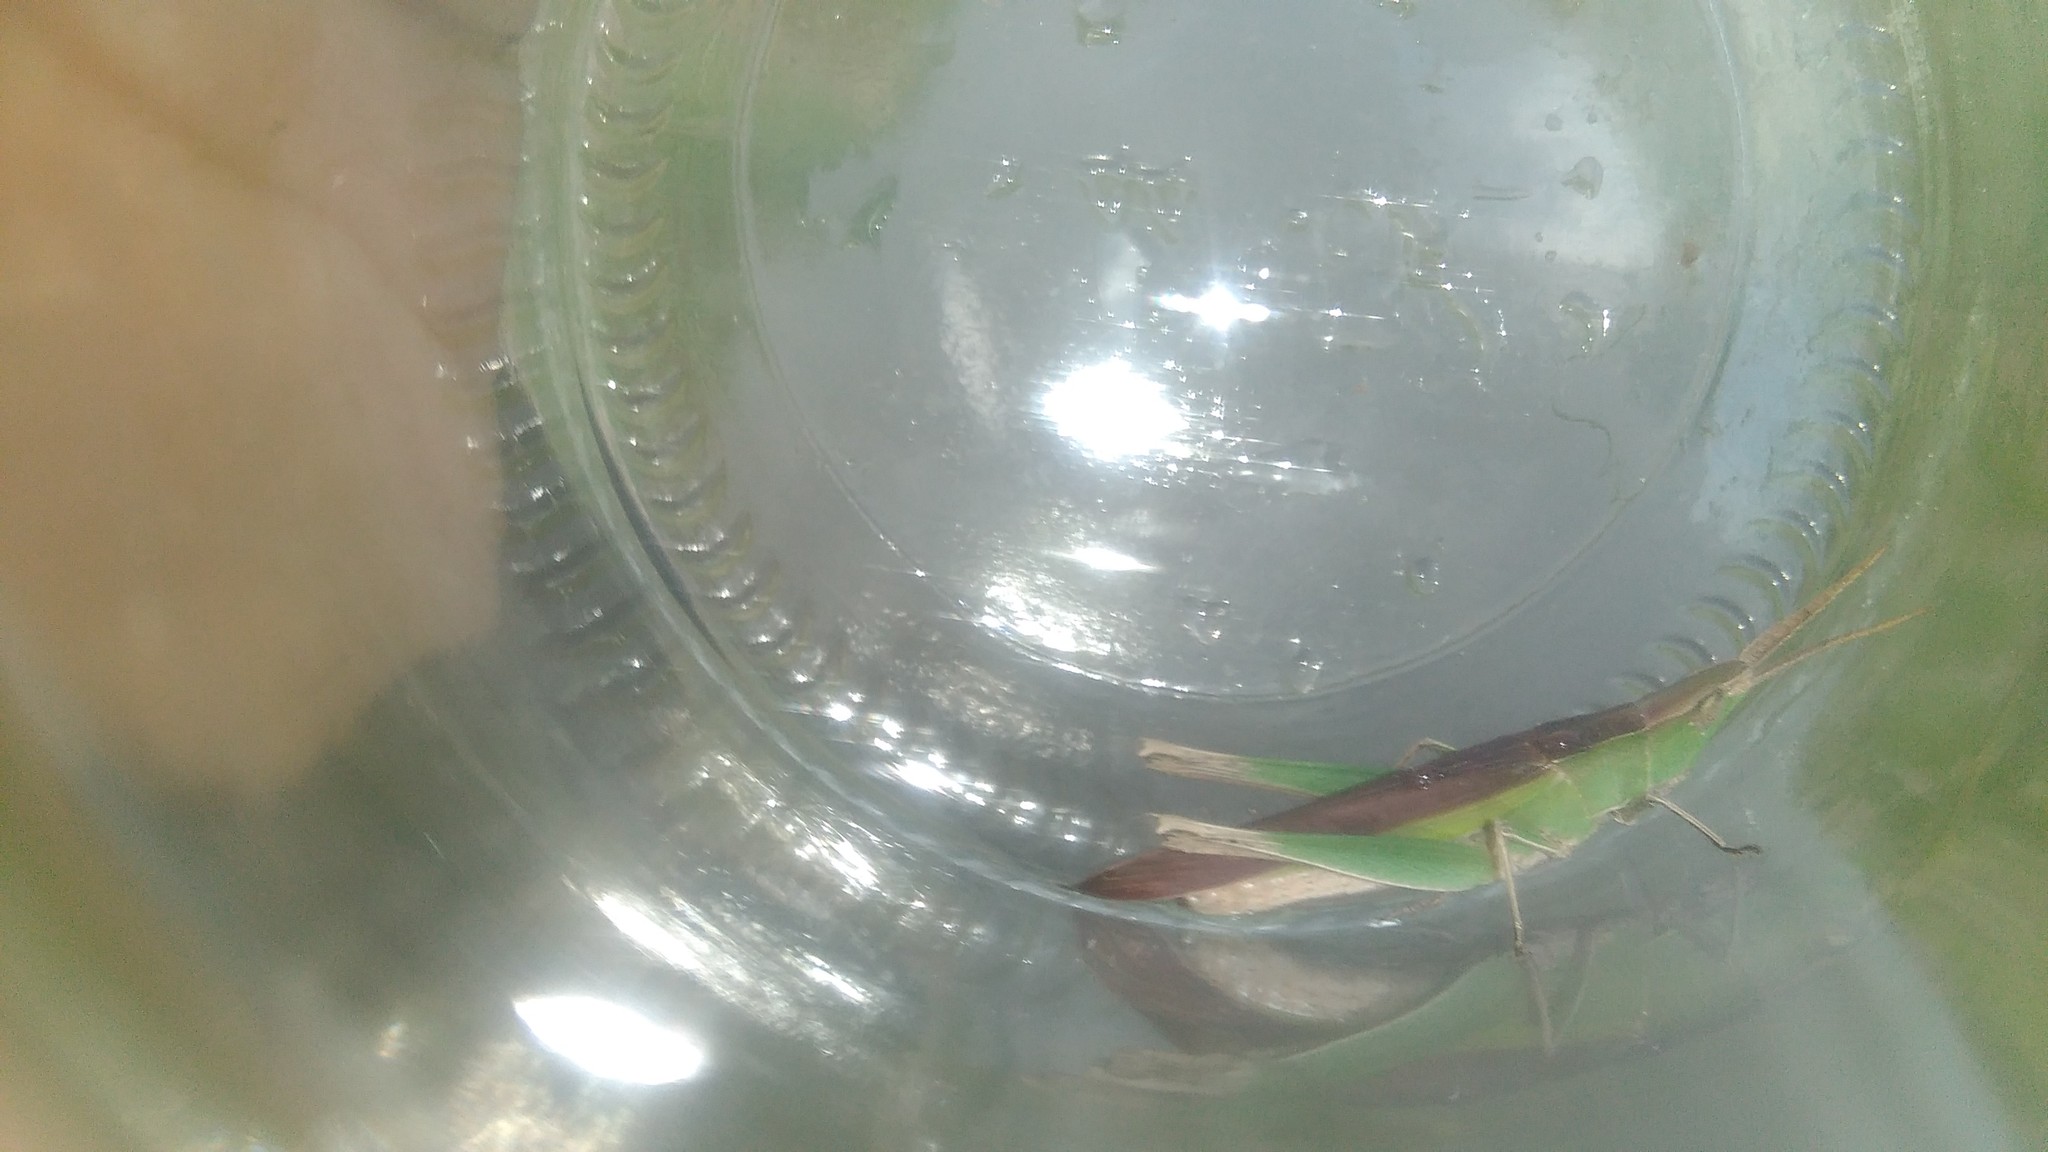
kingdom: Animalia
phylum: Arthropoda
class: Insecta
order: Orthoptera
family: Acrididae
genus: Allotruxalis
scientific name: Allotruxalis gracilis
